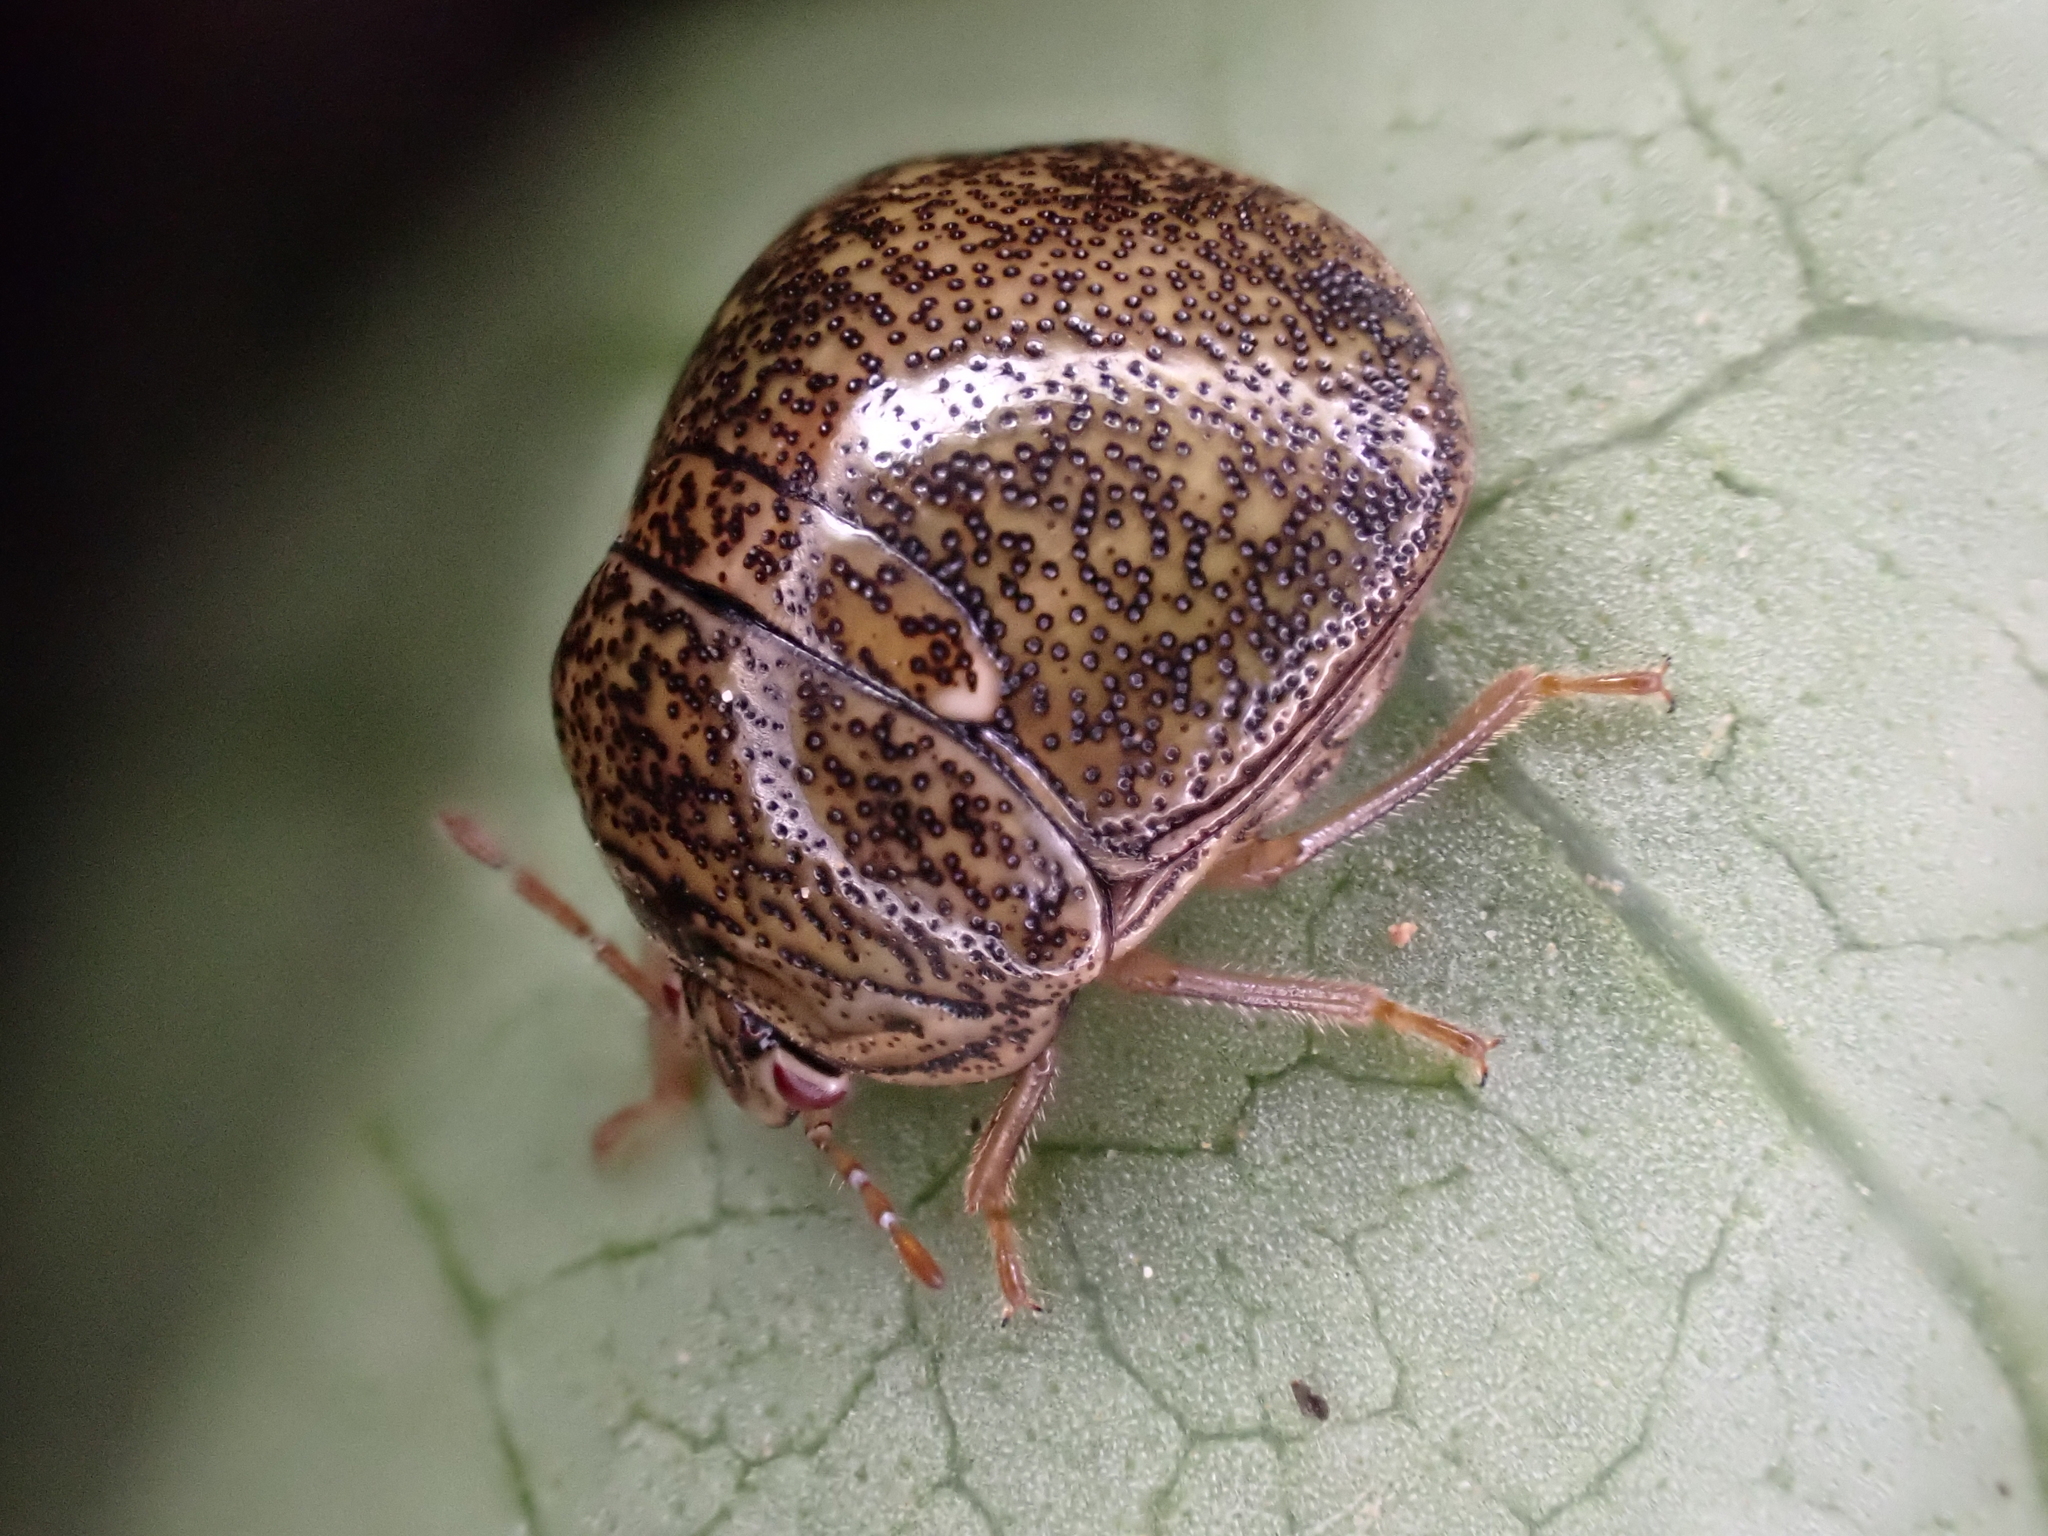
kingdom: Animalia
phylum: Arthropoda
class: Insecta
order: Hemiptera
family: Plataspidae
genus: Megacopta
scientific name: Megacopta cribraria
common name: Bean plataspid
